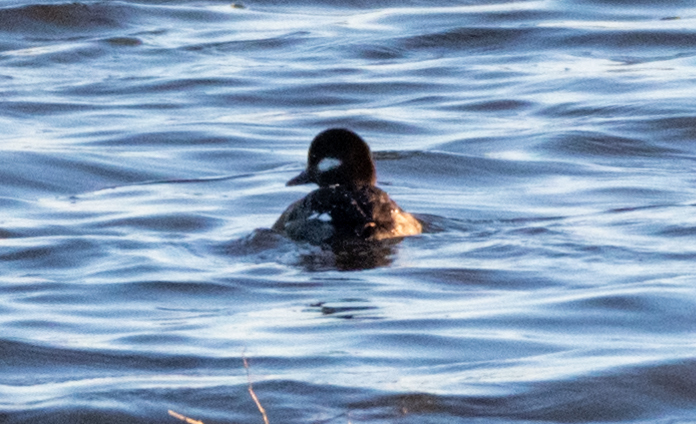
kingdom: Animalia
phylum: Chordata
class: Aves
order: Anseriformes
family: Anatidae
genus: Bucephala
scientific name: Bucephala albeola
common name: Bufflehead
